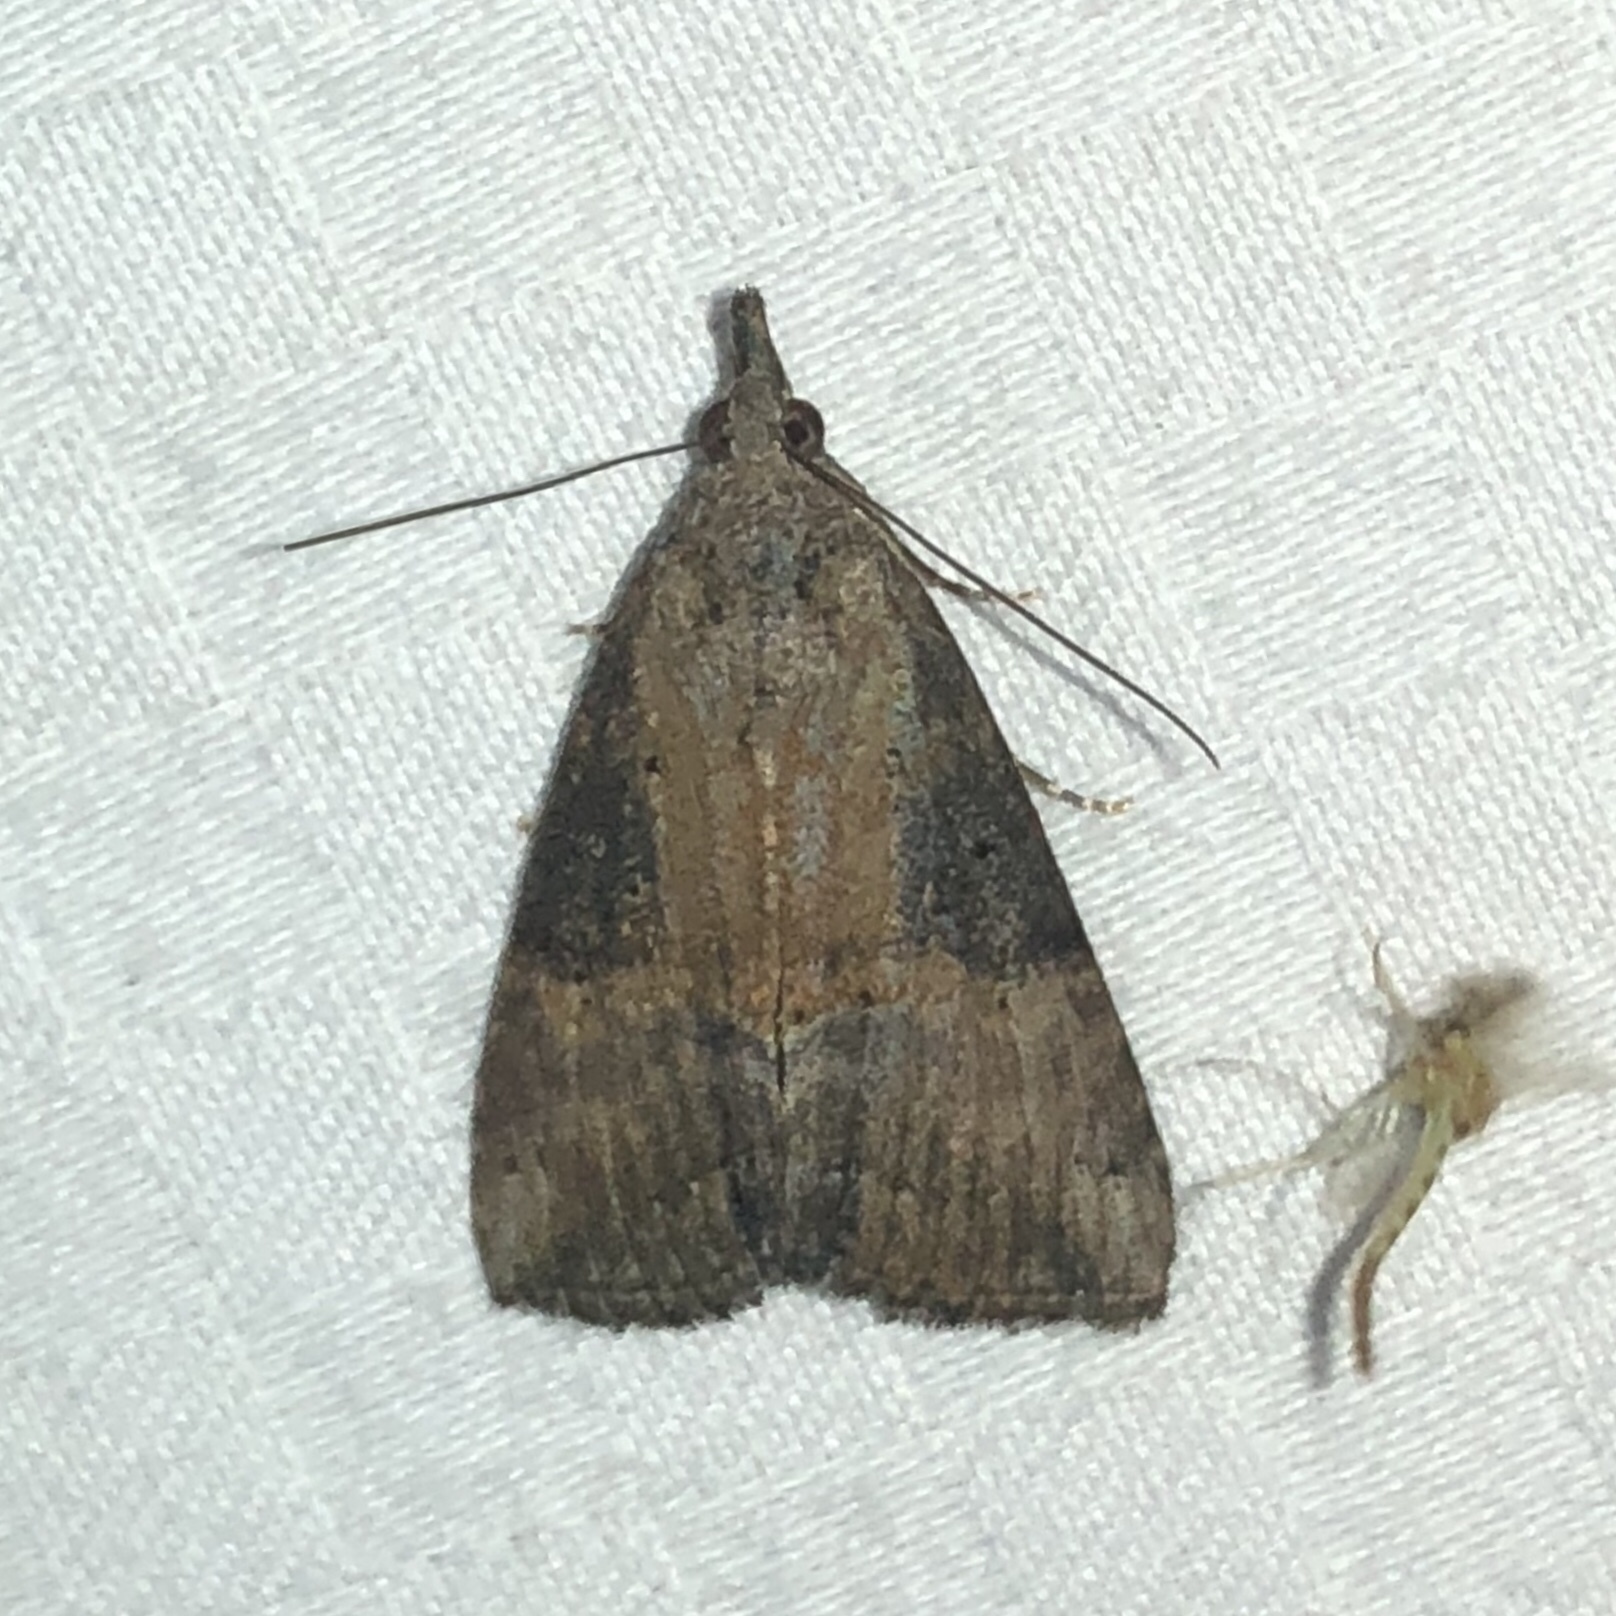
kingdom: Animalia
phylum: Arthropoda
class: Insecta
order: Lepidoptera
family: Erebidae
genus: Hypena
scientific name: Hypena scabra
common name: Green cloverworm
